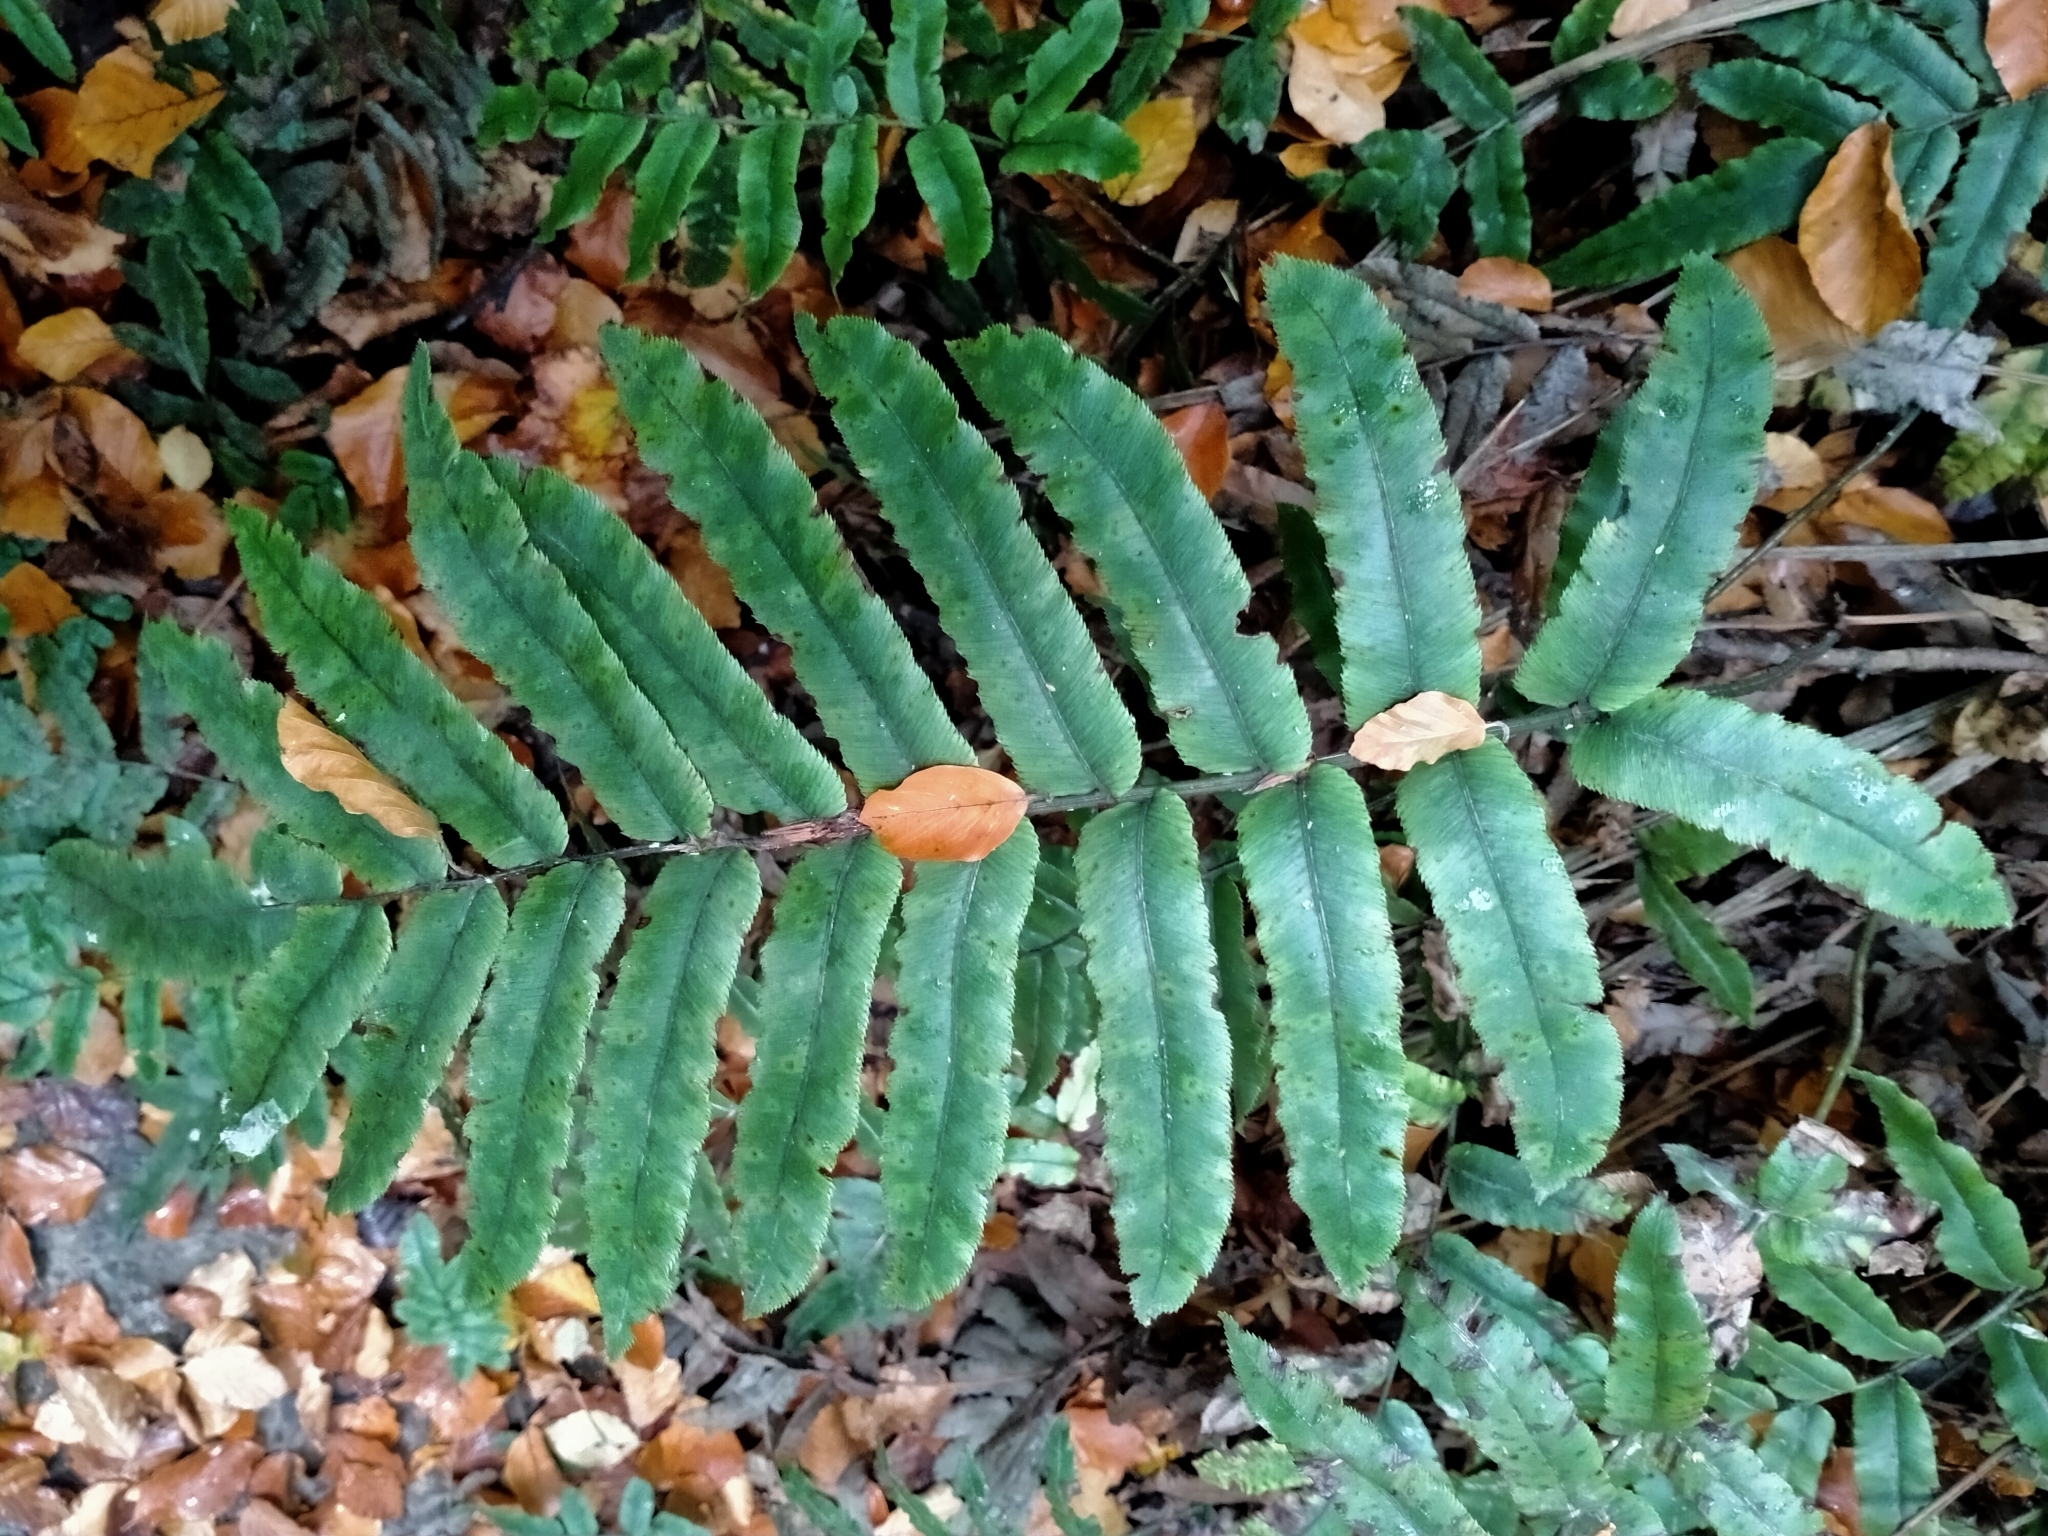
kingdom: Plantae
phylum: Tracheophyta
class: Polypodiopsida
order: Polypodiales
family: Blechnaceae
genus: Parablechnum
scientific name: Parablechnum procerum
